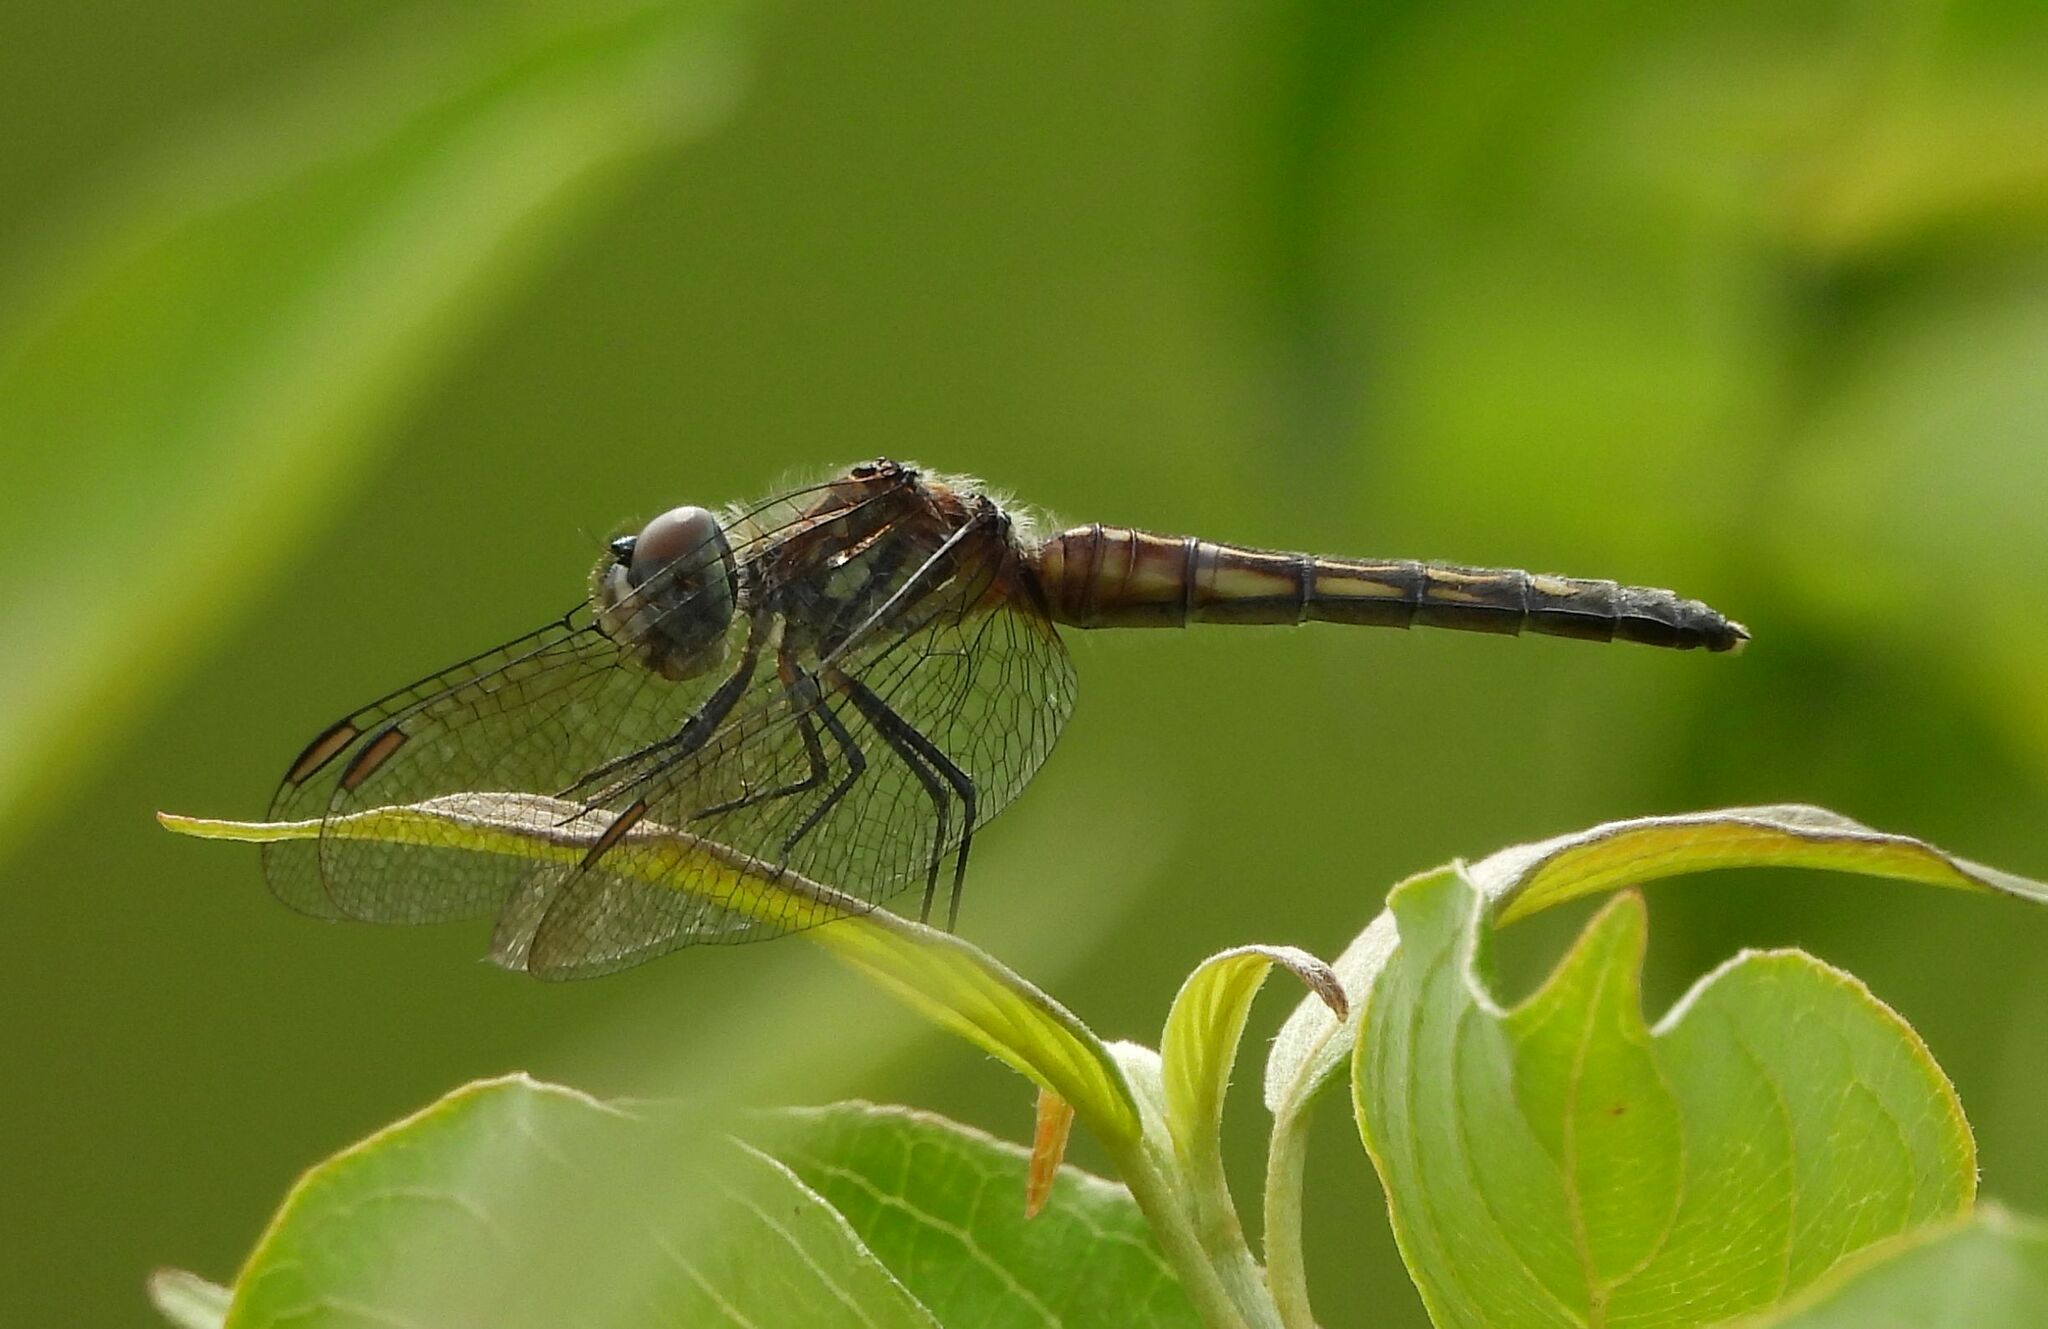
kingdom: Animalia
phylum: Arthropoda
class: Insecta
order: Odonata
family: Libellulidae
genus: Pachydiplax
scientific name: Pachydiplax longipennis
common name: Blue dasher
